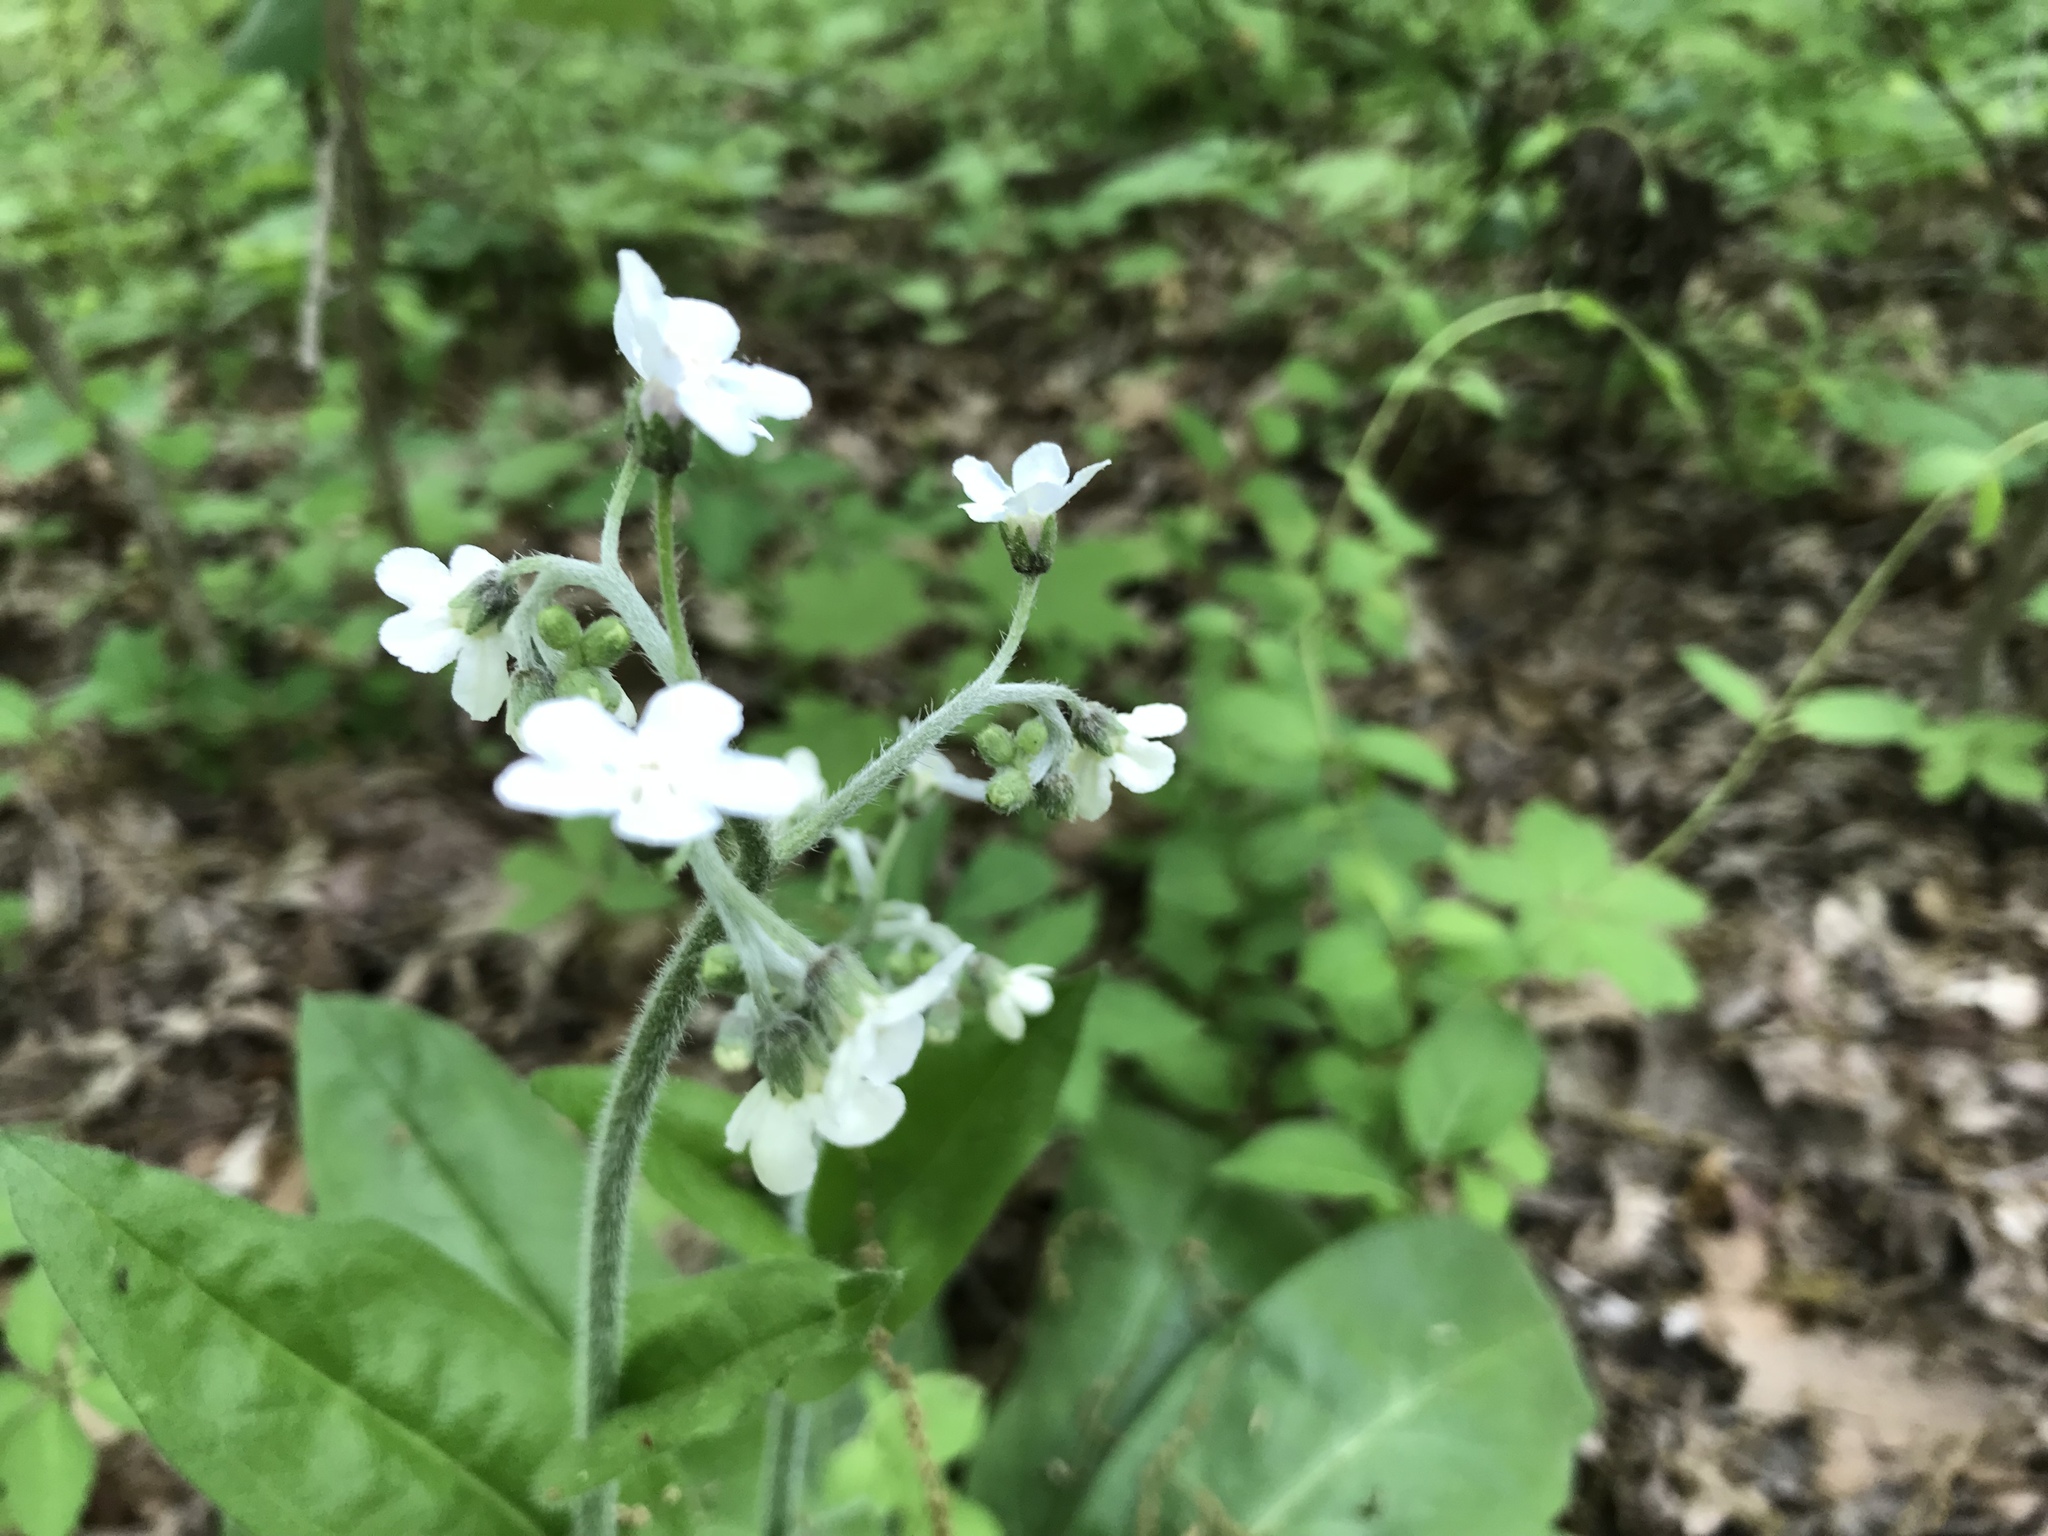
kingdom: Plantae
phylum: Tracheophyta
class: Magnoliopsida
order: Boraginales
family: Boraginaceae
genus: Andersonglossum
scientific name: Andersonglossum virginianum
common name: Wild comfrey
